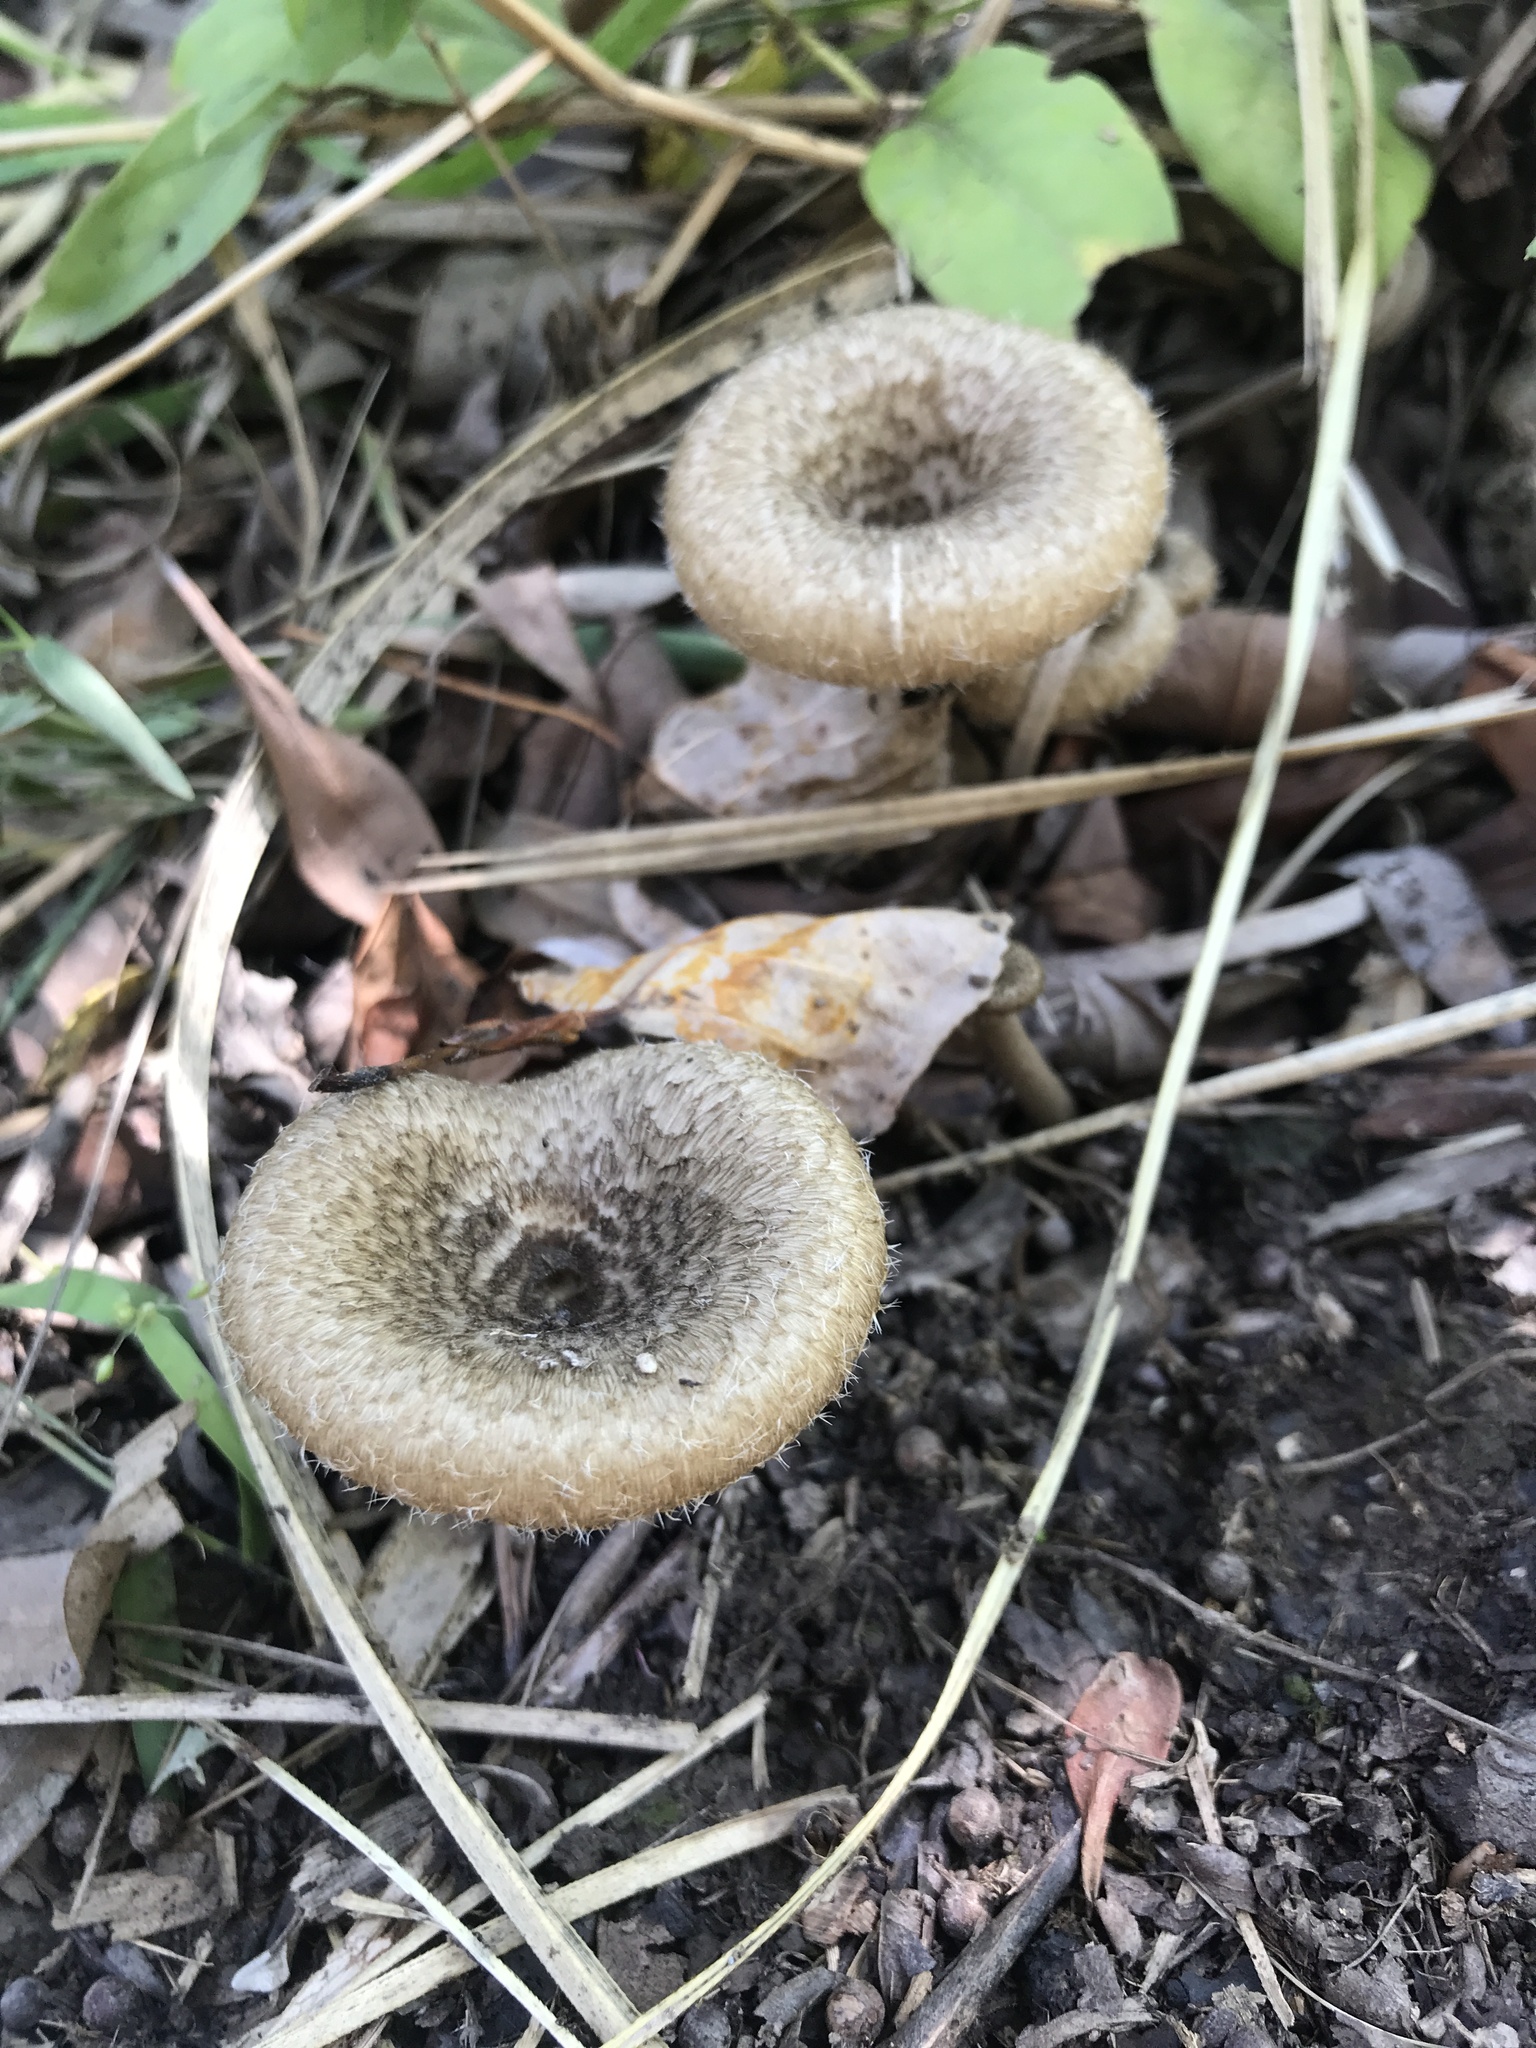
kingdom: Fungi
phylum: Basidiomycota
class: Agaricomycetes
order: Polyporales
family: Polyporaceae
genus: Lentinus
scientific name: Lentinus crinitus
